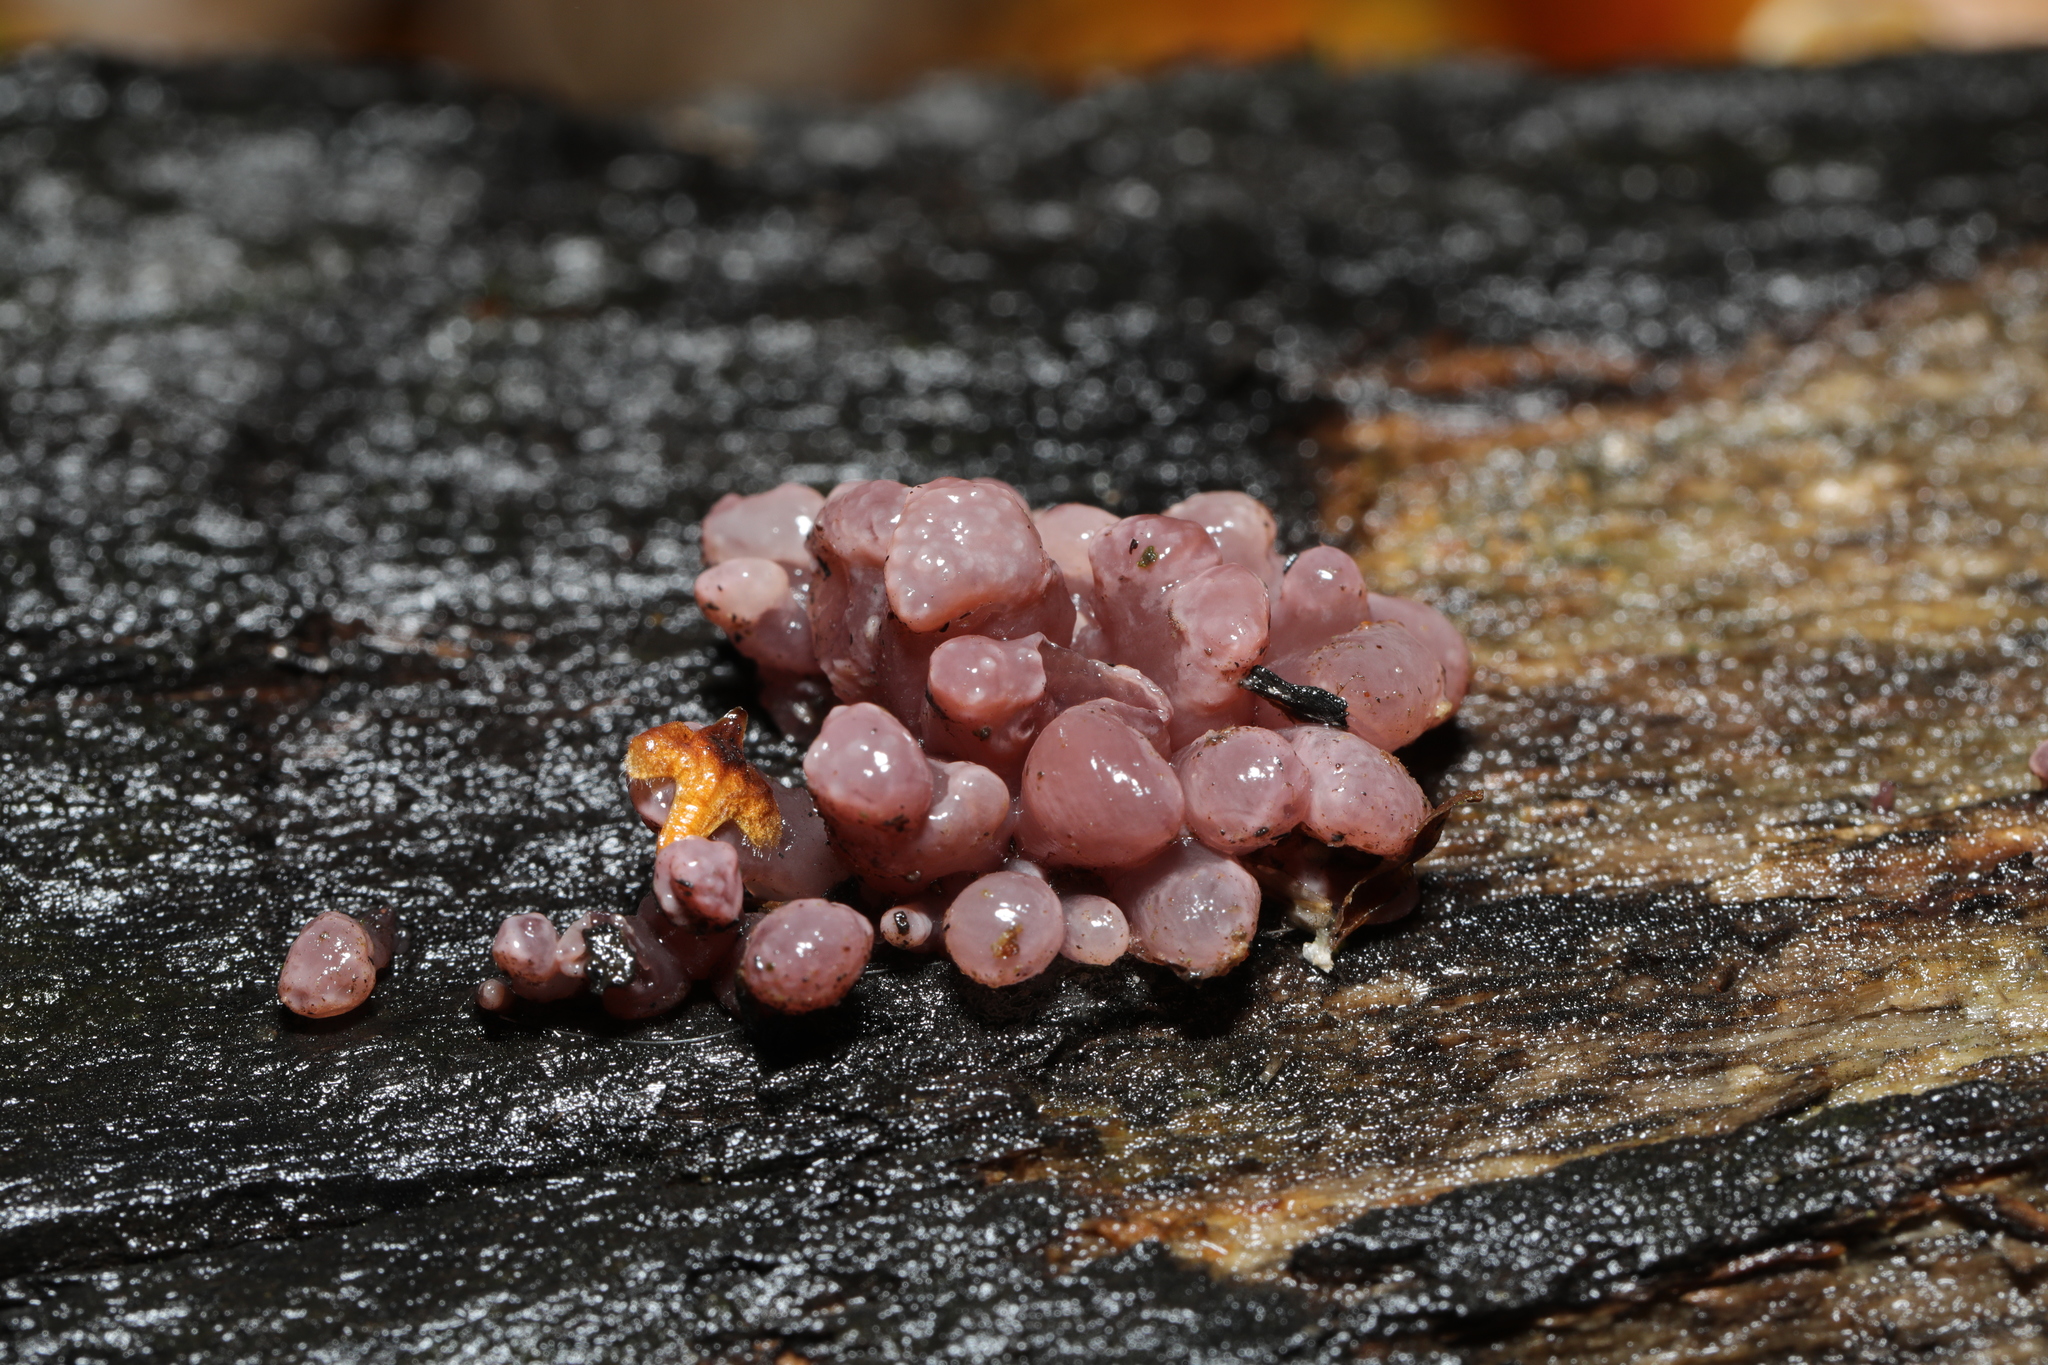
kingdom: Fungi
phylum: Ascomycota
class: Leotiomycetes
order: Helotiales
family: Gelatinodiscaceae
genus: Ascocoryne
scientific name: Ascocoryne sarcoides
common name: Purple jellydisc
